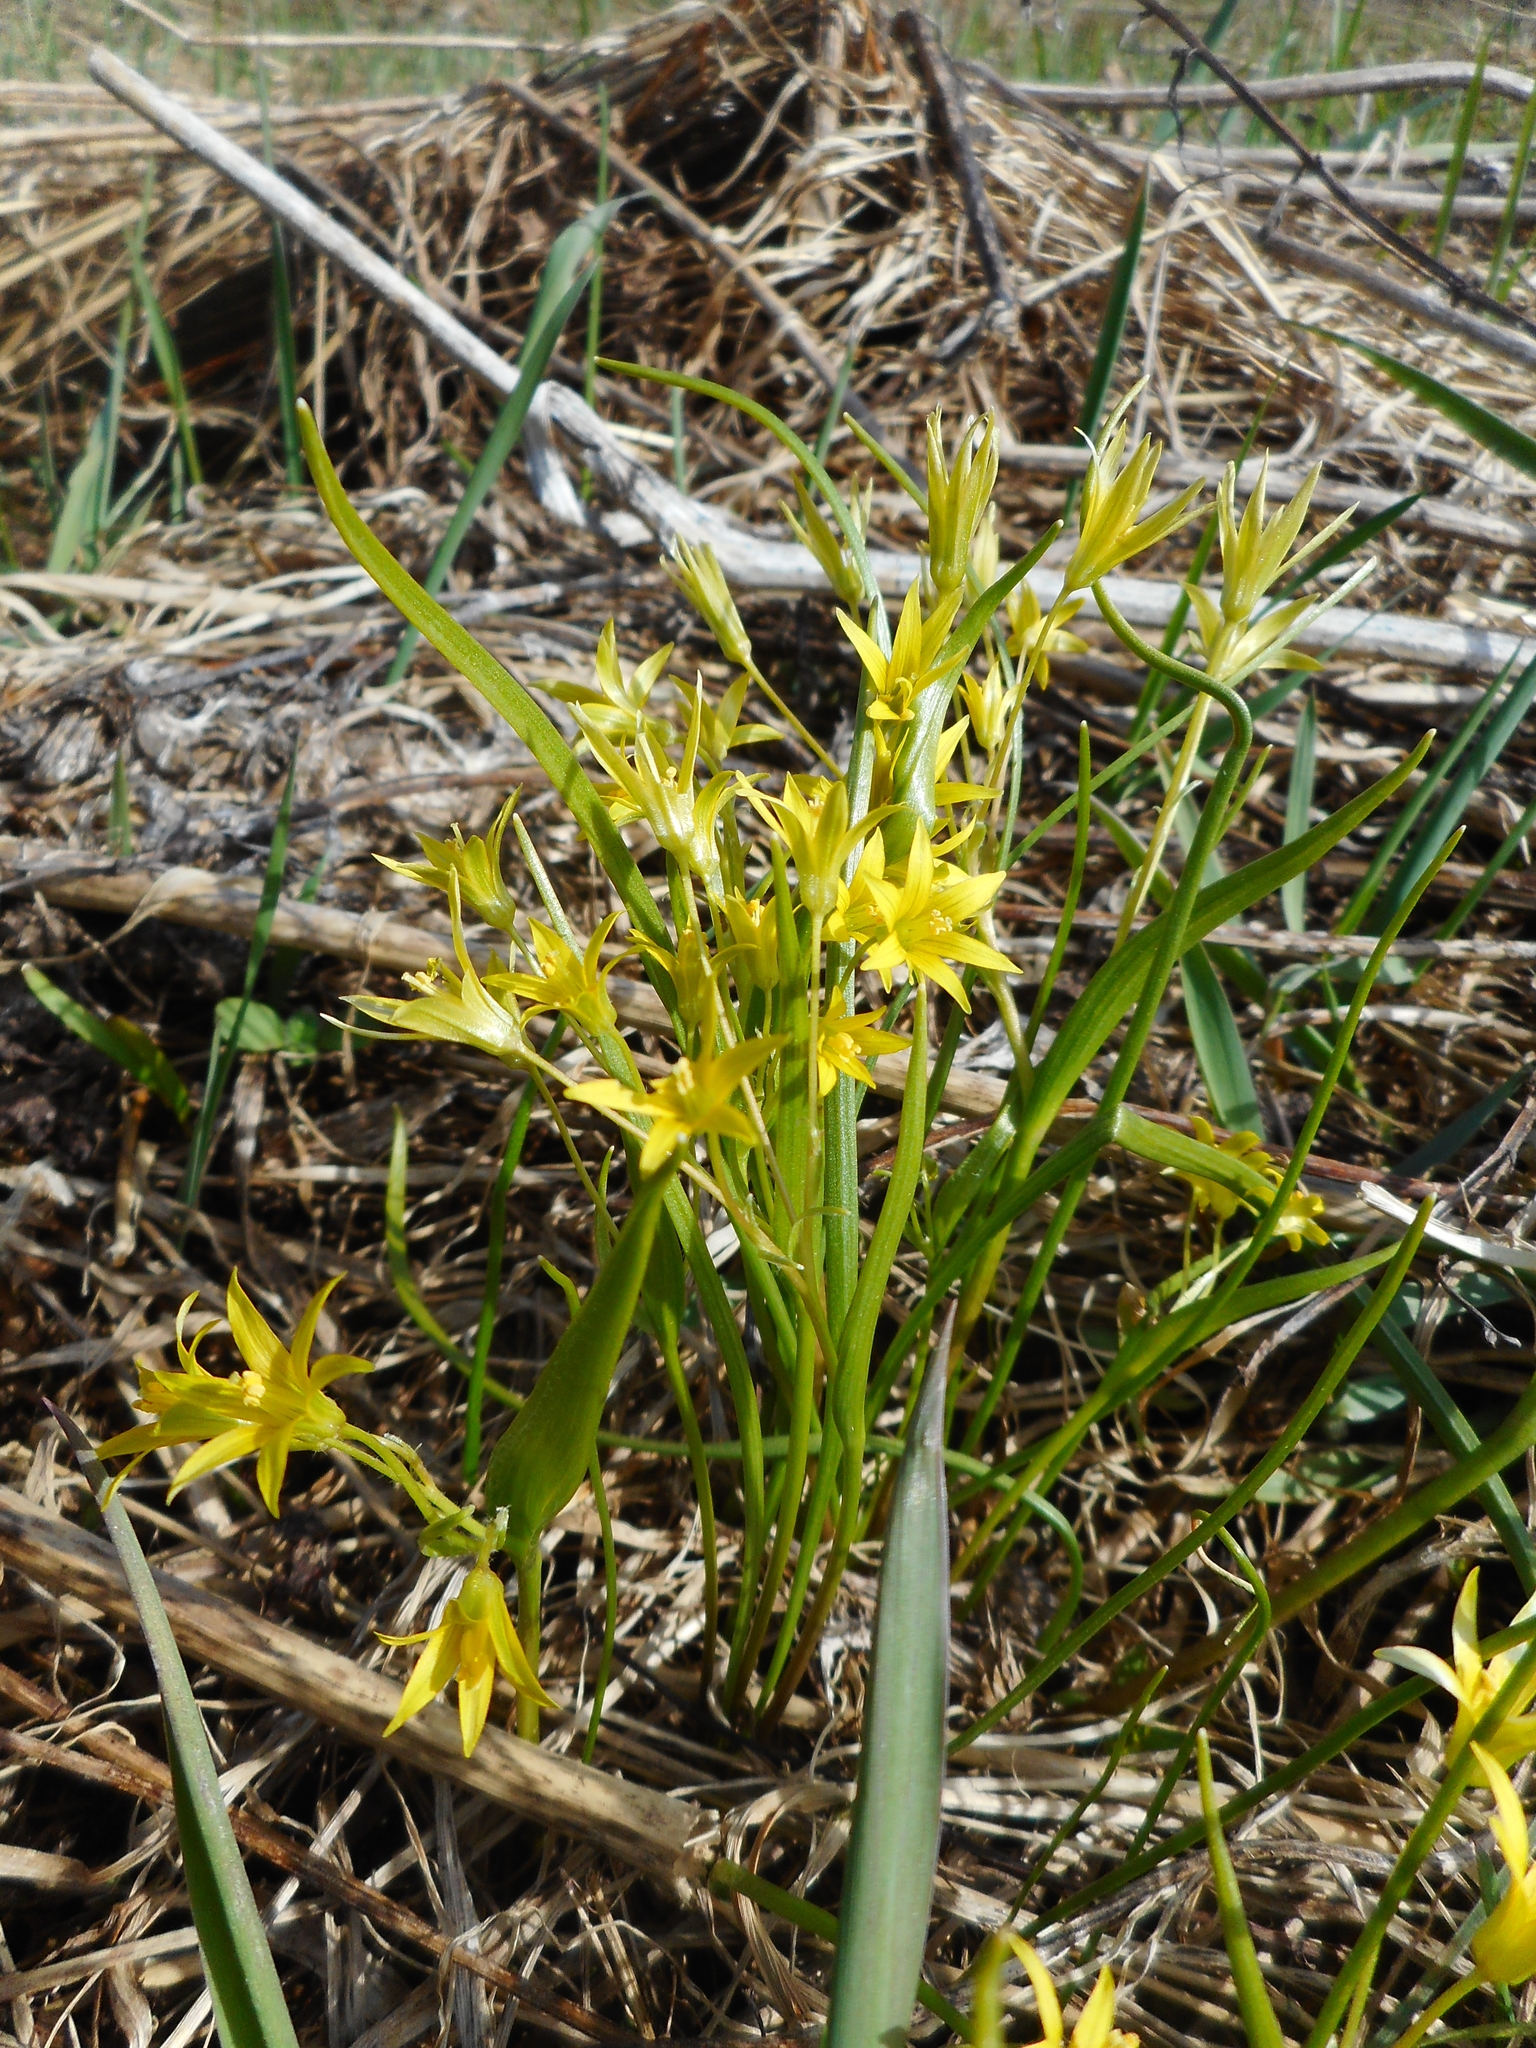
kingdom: Plantae
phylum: Tracheophyta
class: Liliopsida
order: Liliales
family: Liliaceae
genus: Gagea
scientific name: Gagea minima
